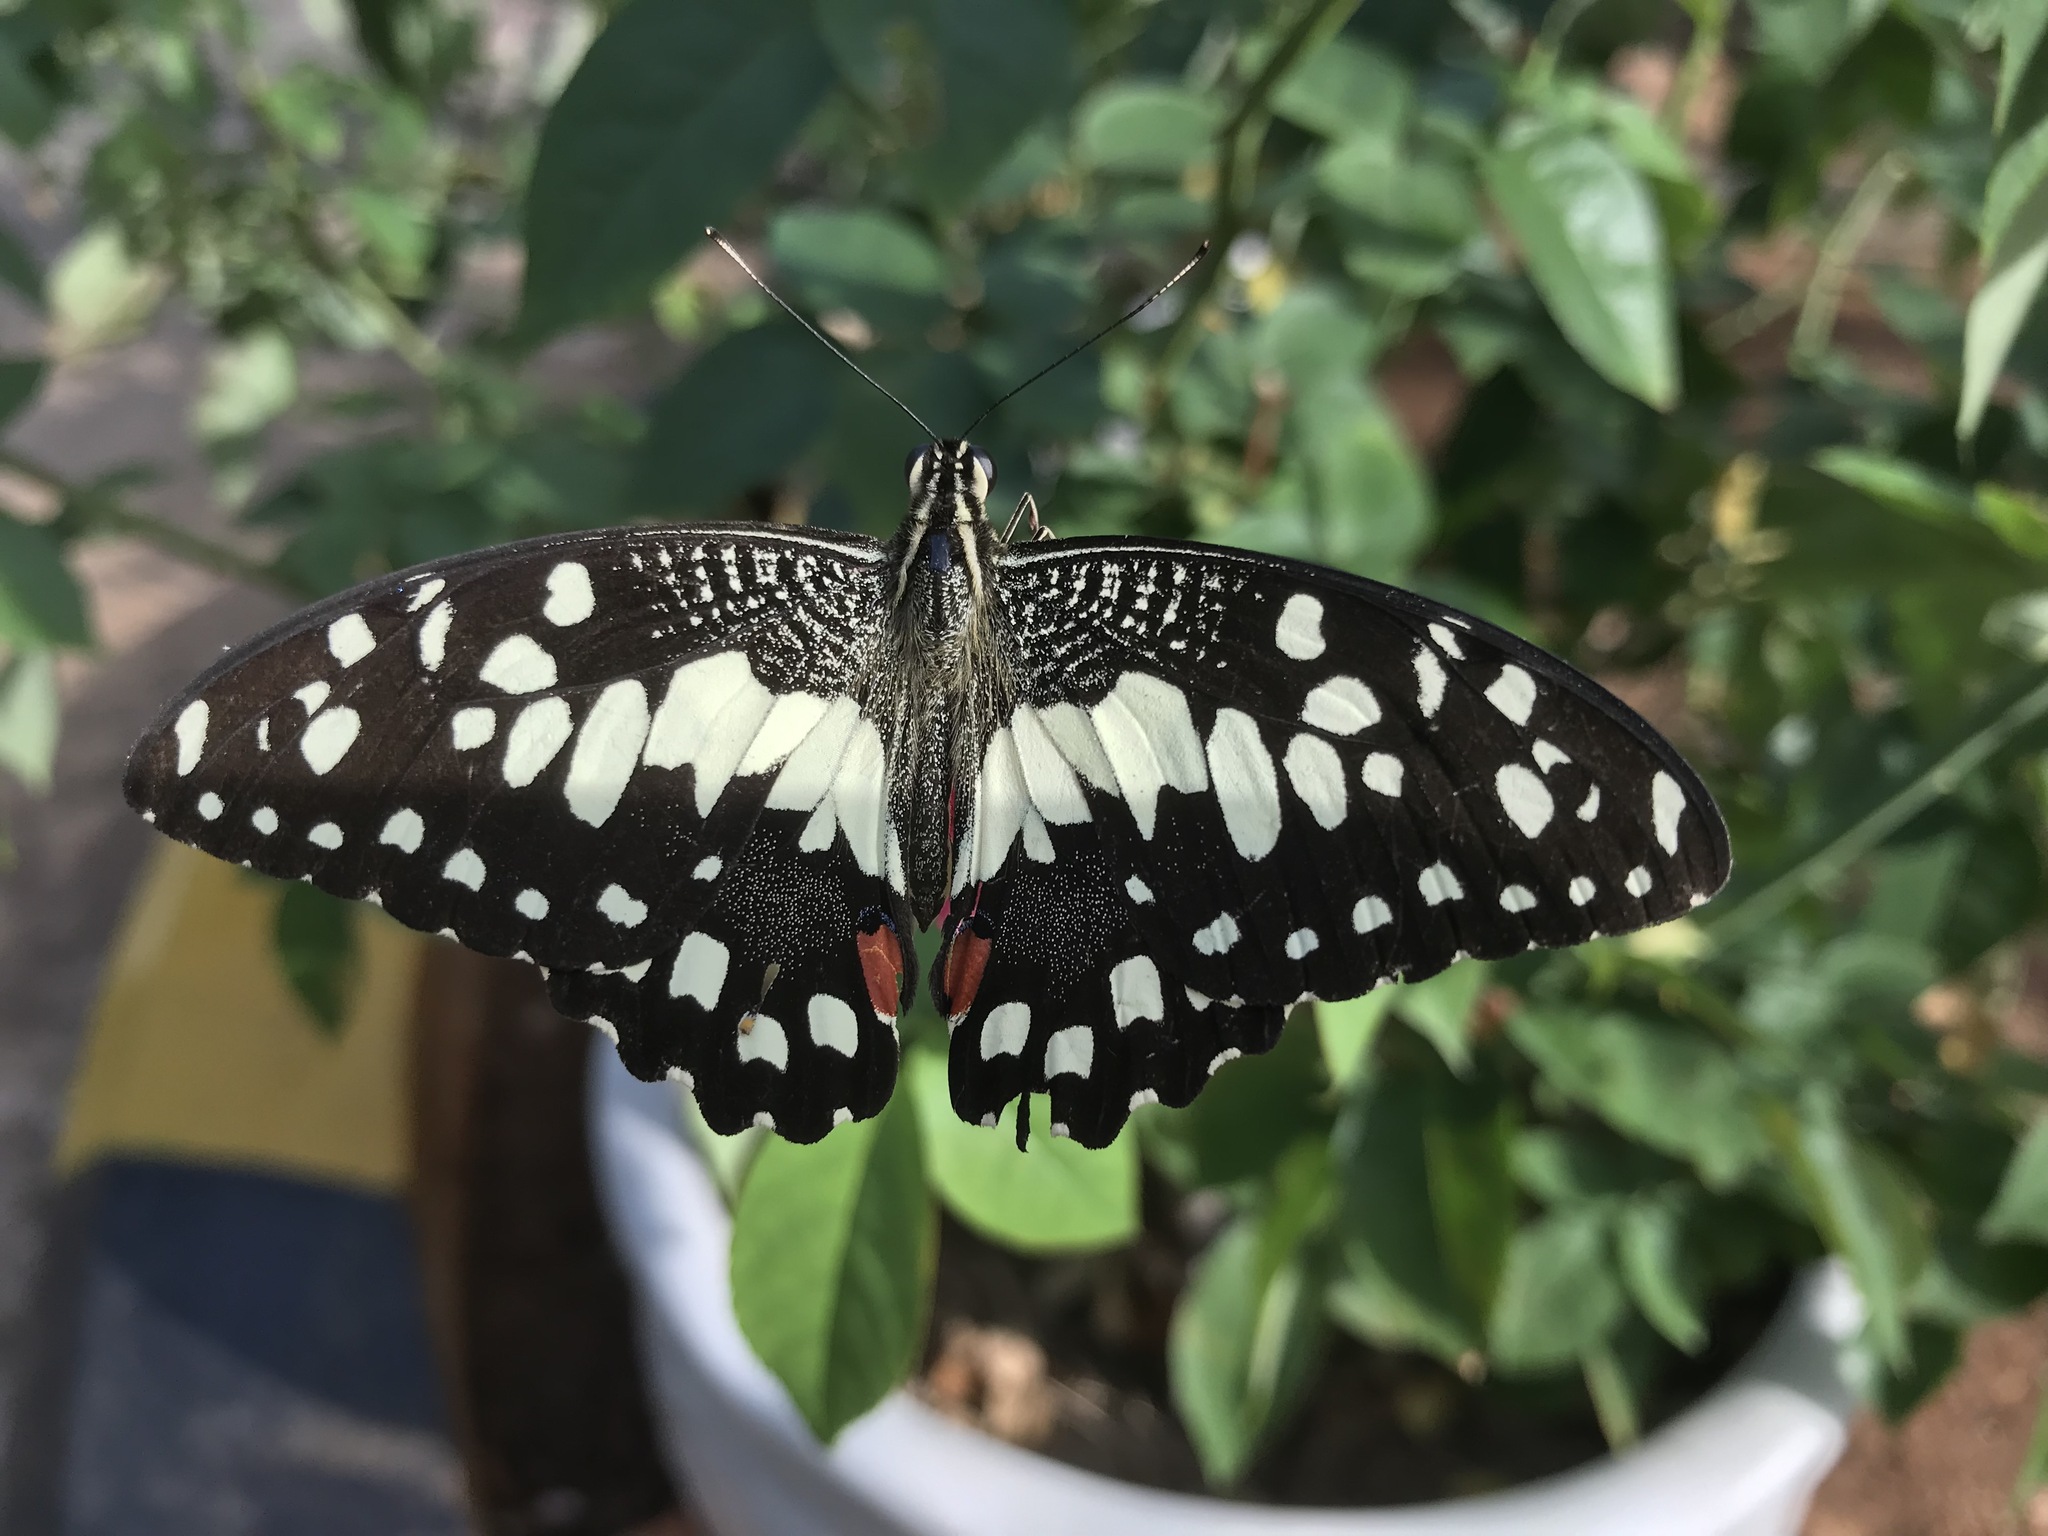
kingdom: Animalia
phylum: Arthropoda
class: Insecta
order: Lepidoptera
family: Papilionidae
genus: Papilio
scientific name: Papilio demoleus
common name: Lime butterfly
